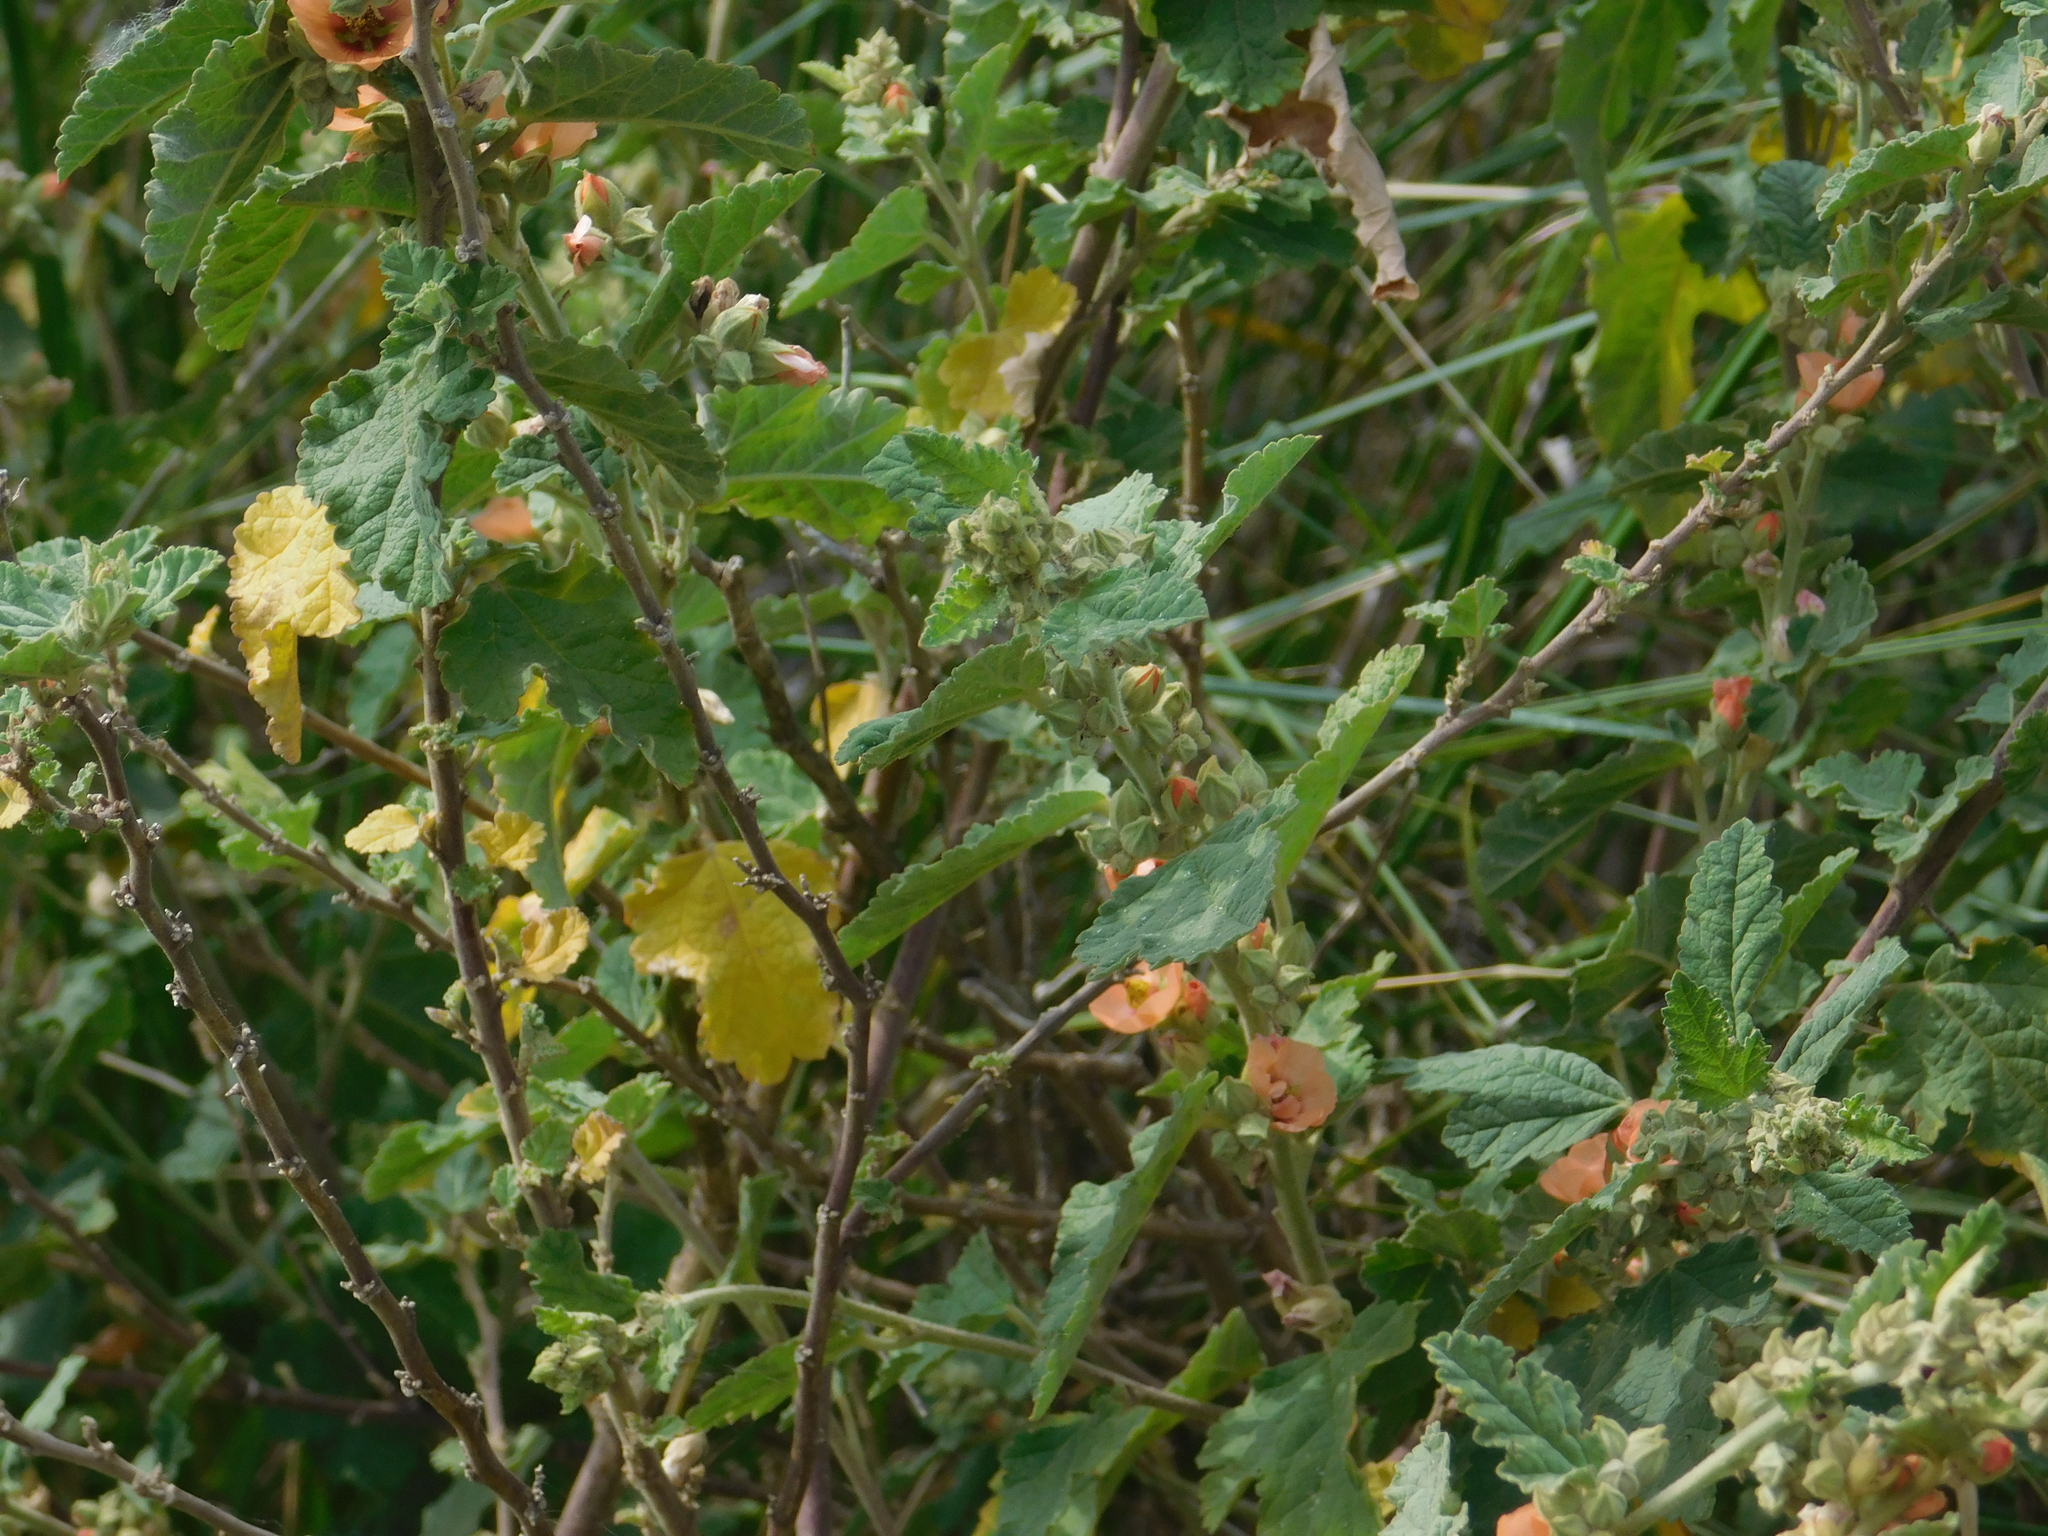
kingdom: Plantae
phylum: Tracheophyta
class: Magnoliopsida
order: Malvales
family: Malvaceae
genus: Sphaeralcea
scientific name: Sphaeralcea bonariensis
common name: Latin globemallow
